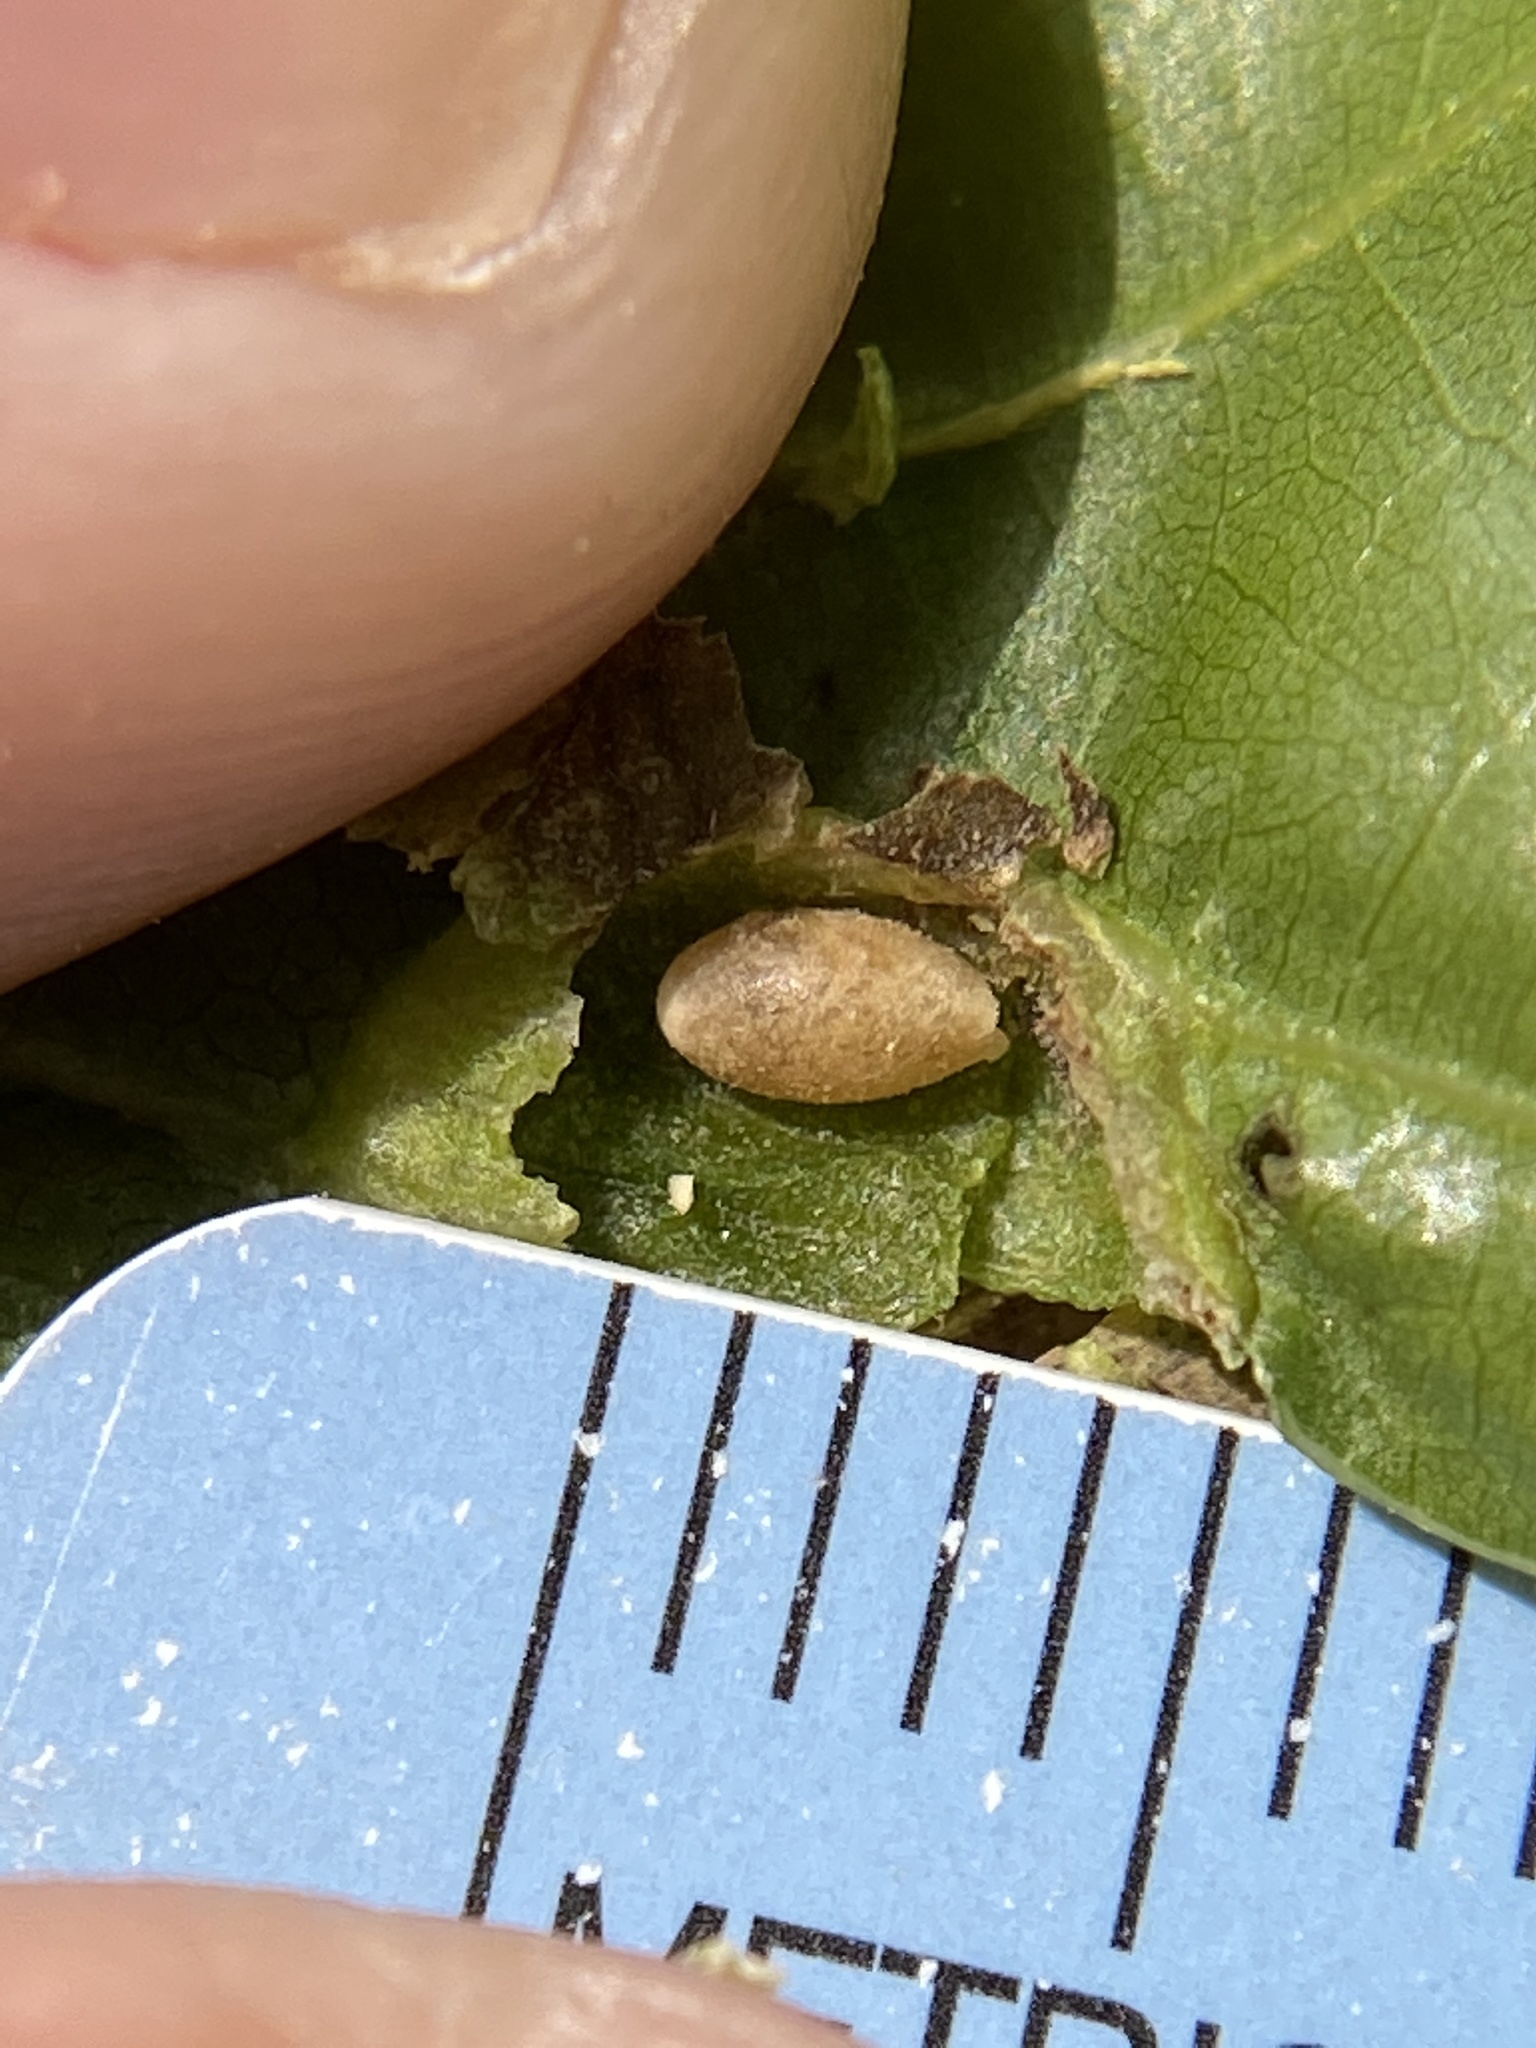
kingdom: Animalia
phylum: Arthropoda
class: Insecta
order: Hymenoptera
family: Cynipidae
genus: Dryocosmus
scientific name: Dryocosmus
